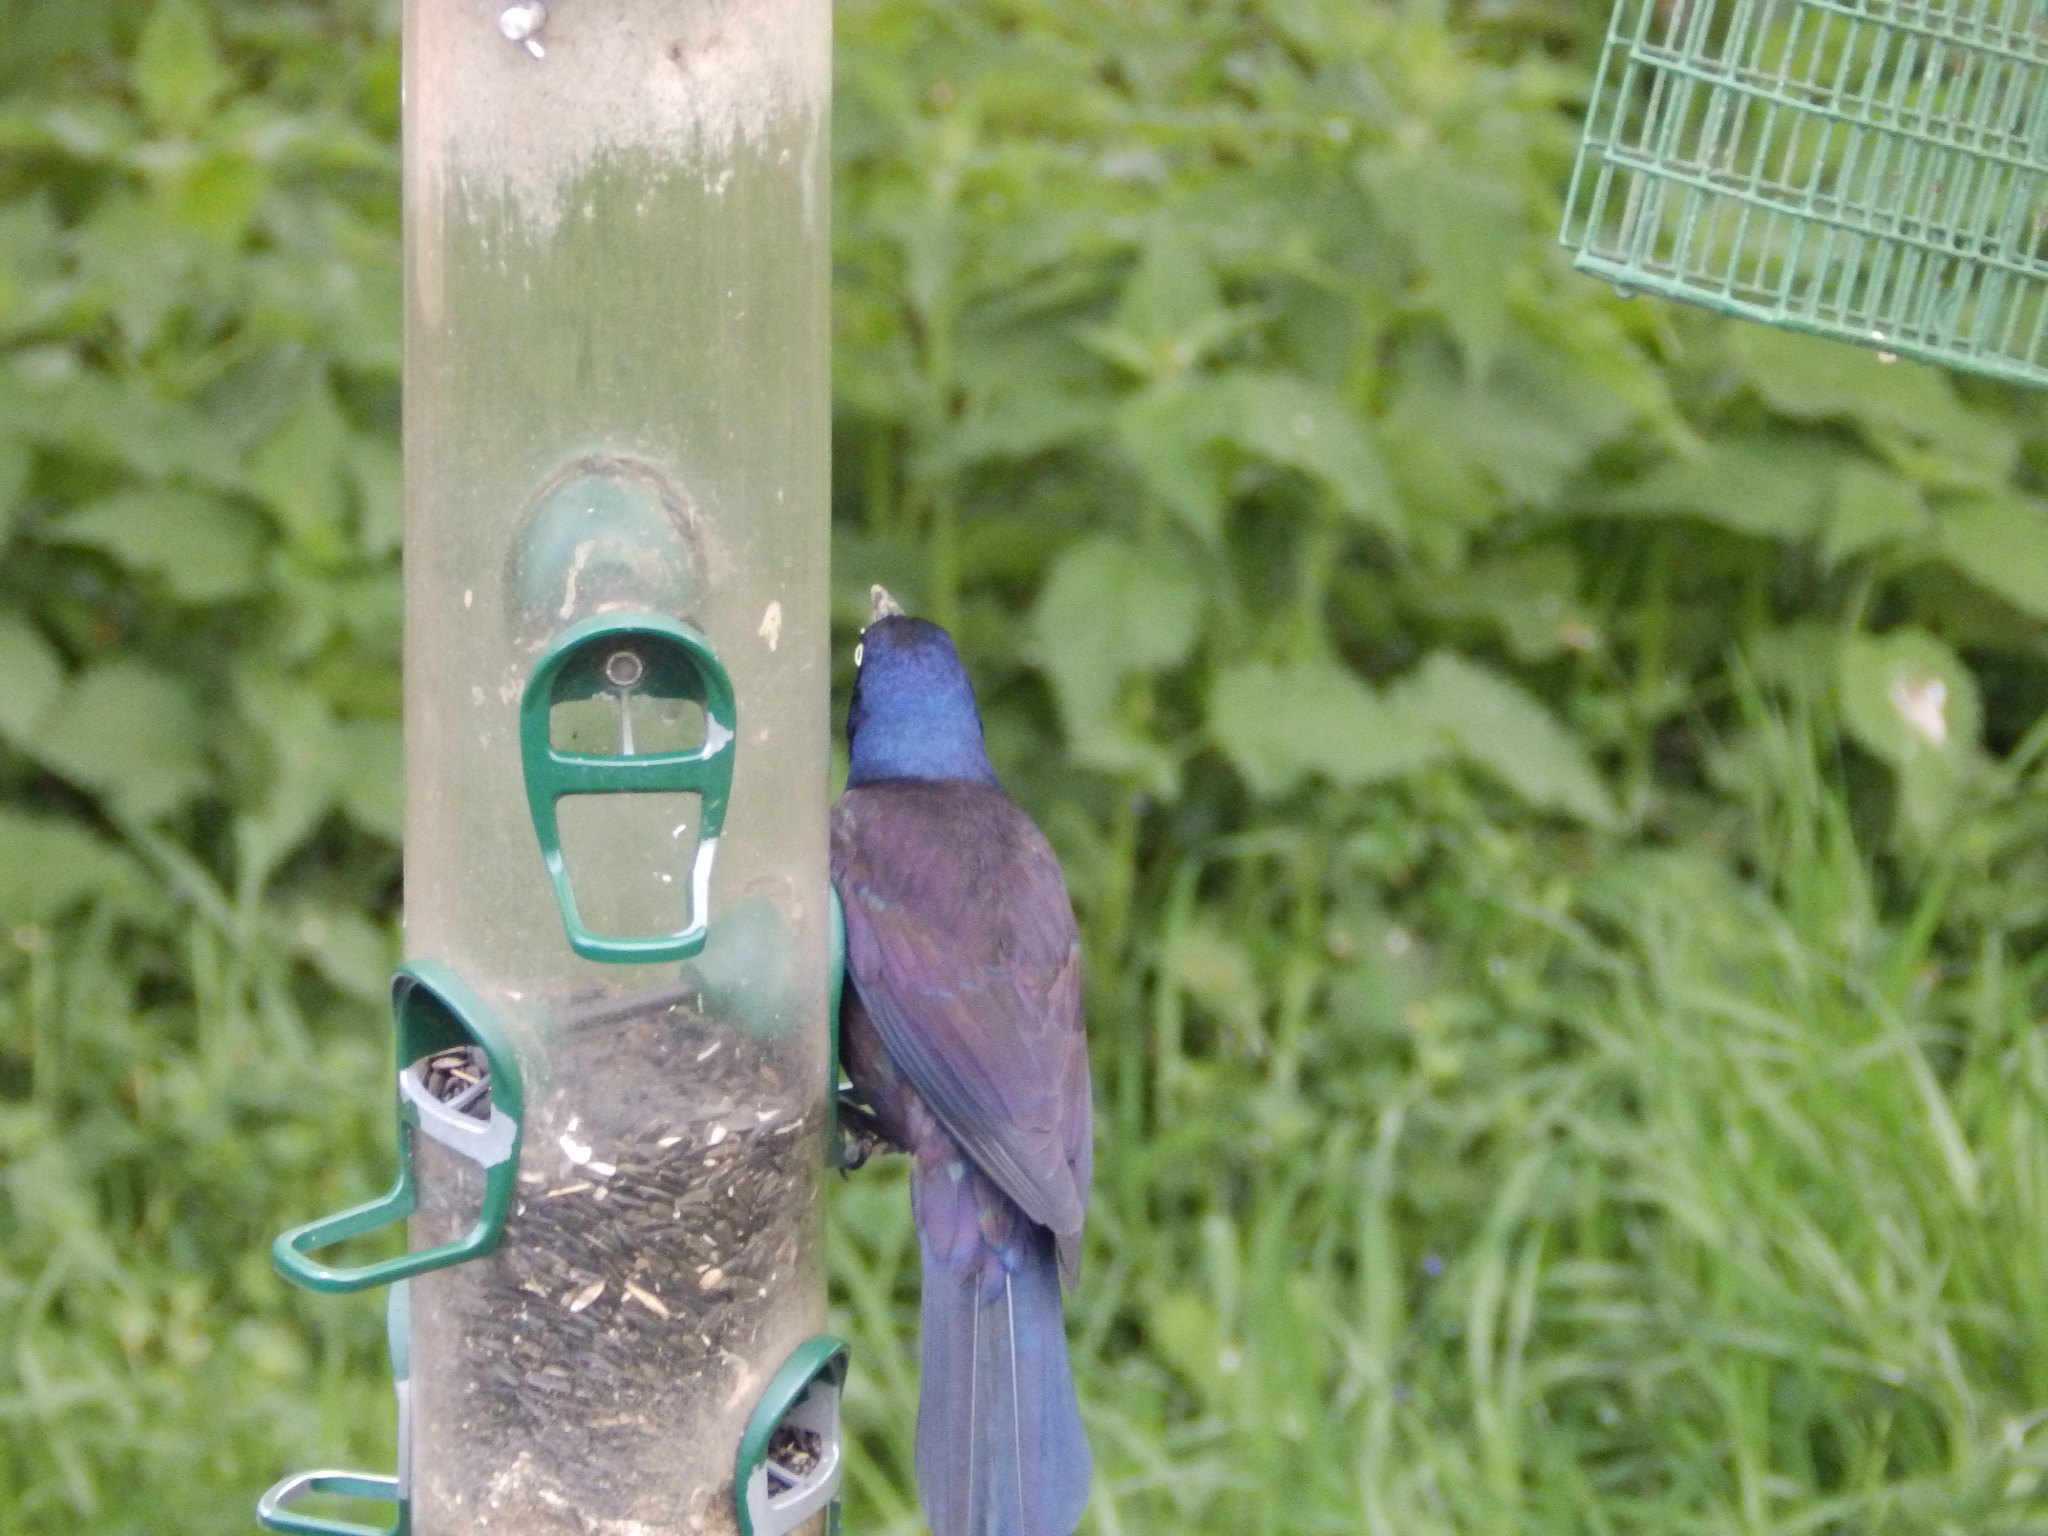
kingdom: Animalia
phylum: Chordata
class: Aves
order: Passeriformes
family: Icteridae
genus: Quiscalus
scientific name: Quiscalus quiscula
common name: Common grackle
